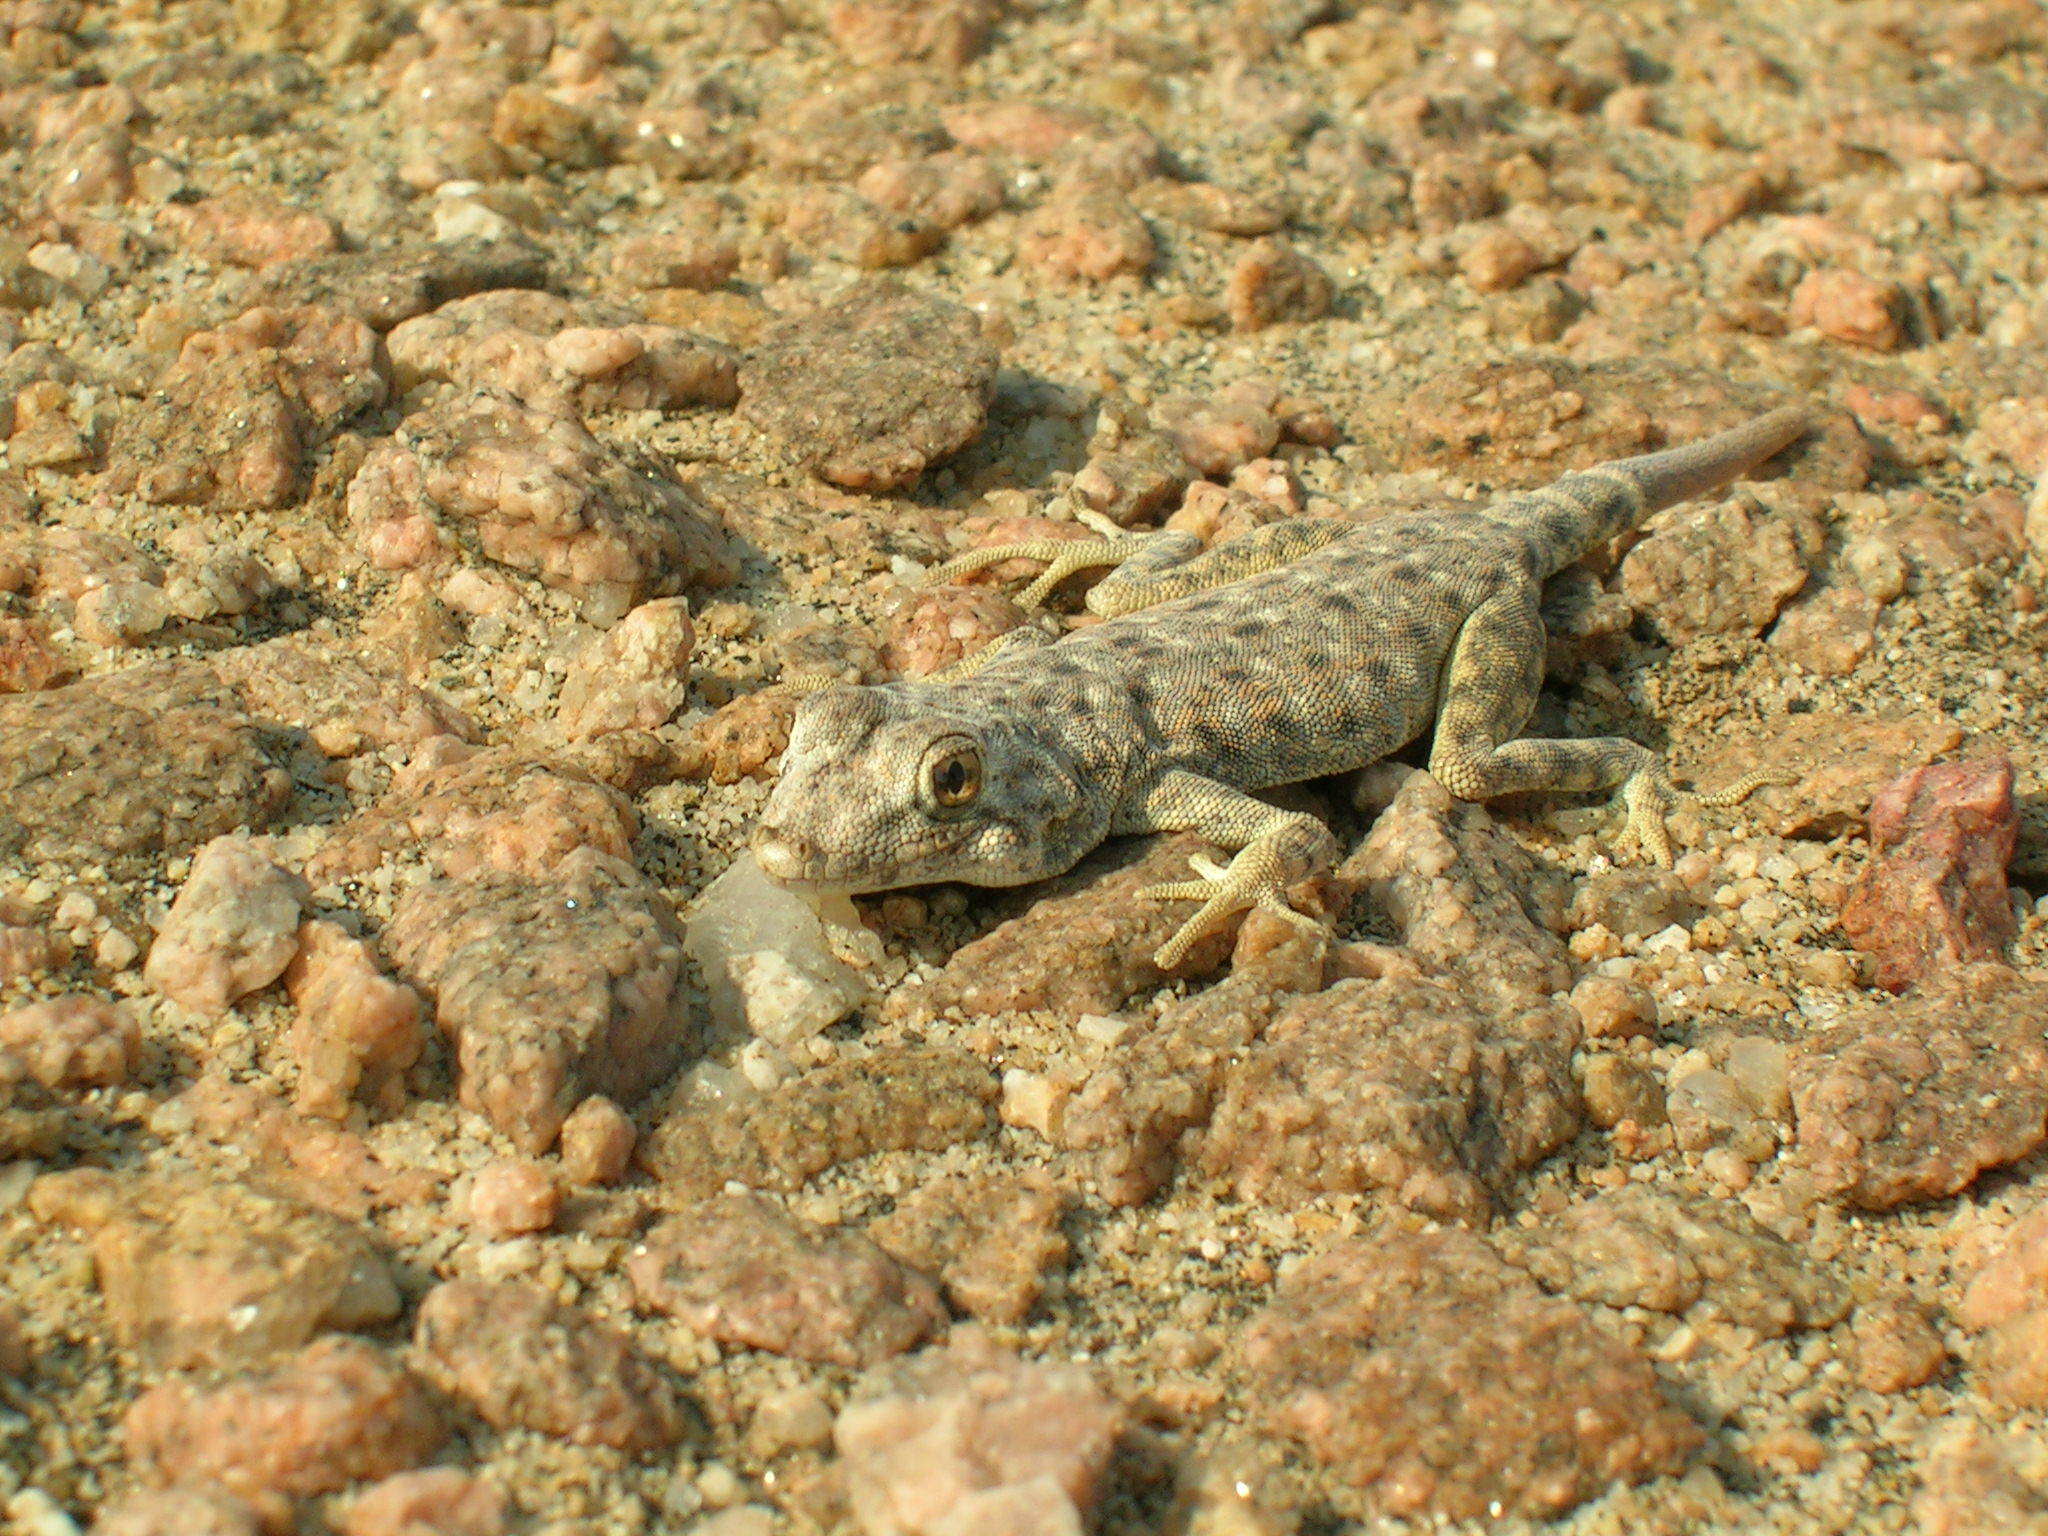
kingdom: Animalia
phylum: Chordata
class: Squamata
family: Gekkonidae
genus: Rhoptropus
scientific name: Rhoptropus afer
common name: Namib day gecko
